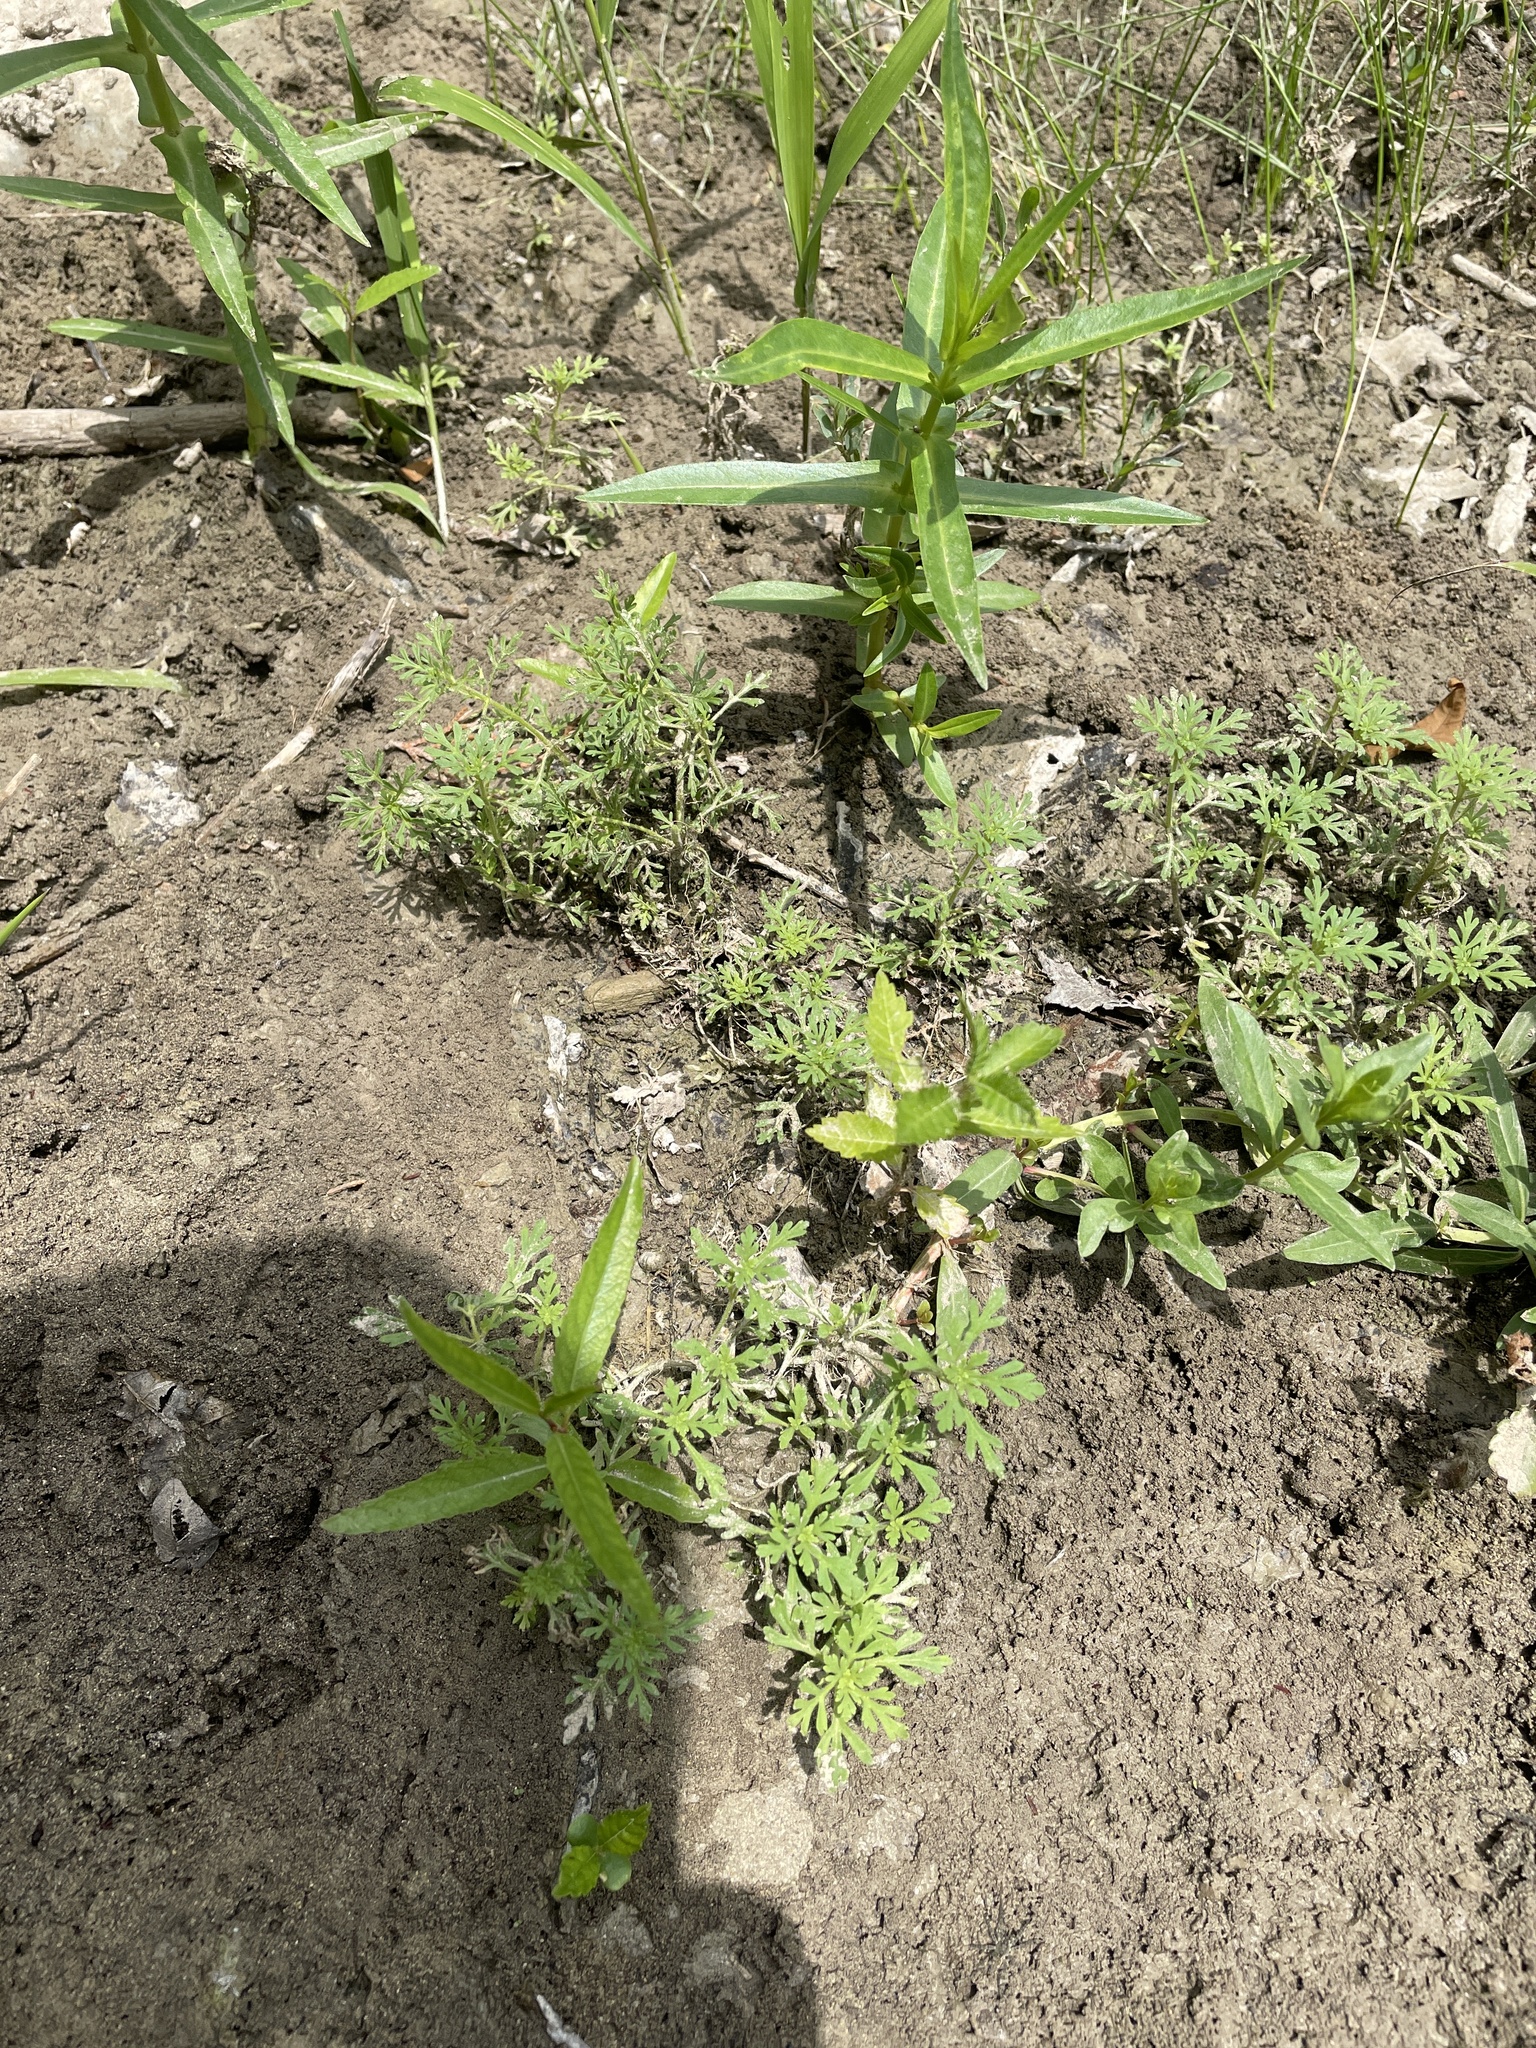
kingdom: Plantae
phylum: Tracheophyta
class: Magnoliopsida
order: Lamiales
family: Plantaginaceae
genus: Leucospora
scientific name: Leucospora multifida
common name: Narrow-leaf paleseed
